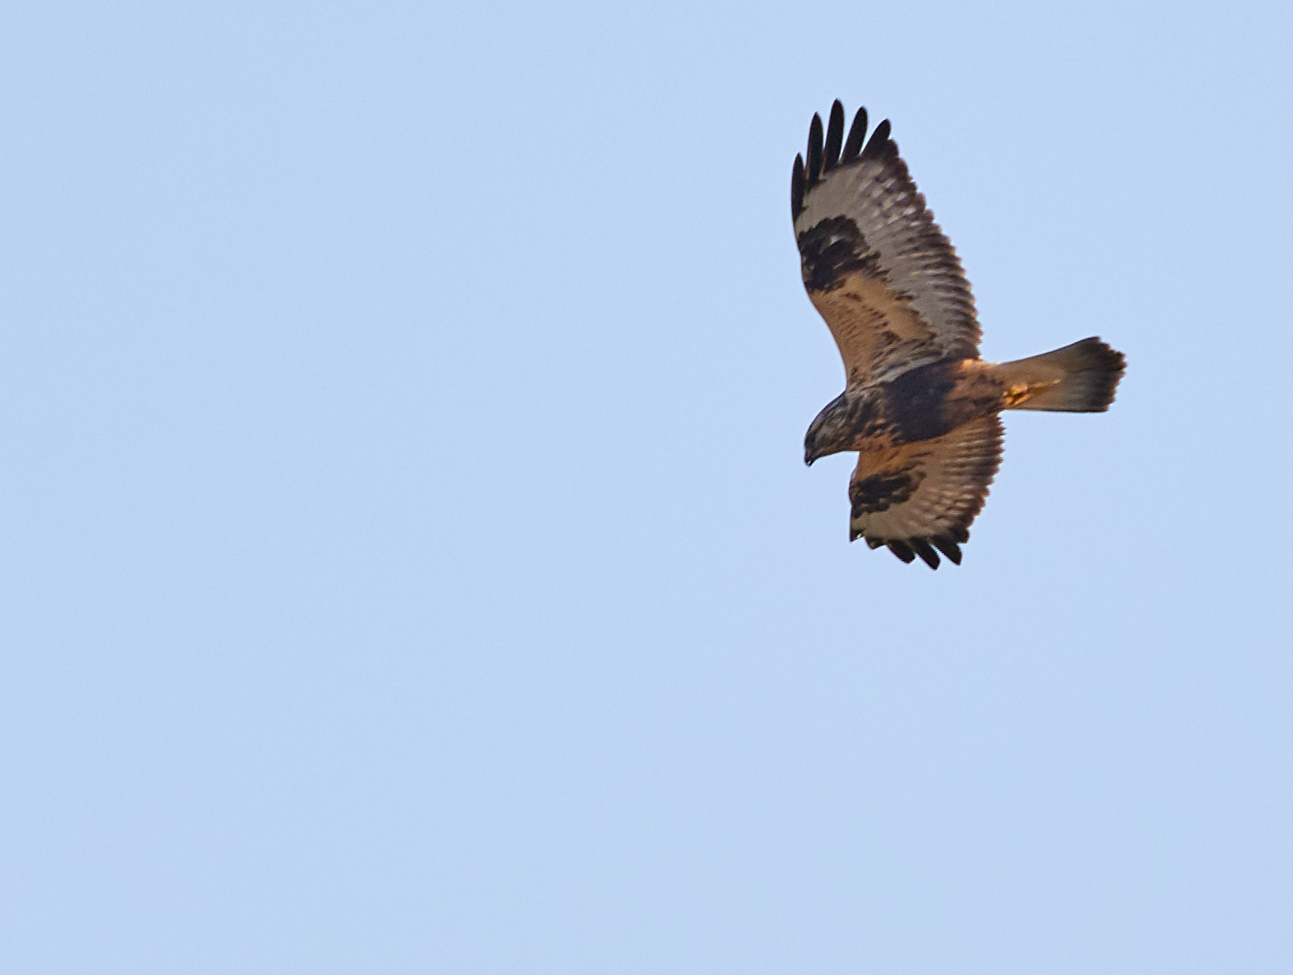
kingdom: Animalia
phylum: Chordata
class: Aves
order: Accipitriformes
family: Accipitridae
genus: Buteo
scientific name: Buteo lagopus
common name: Rough-legged buzzard
